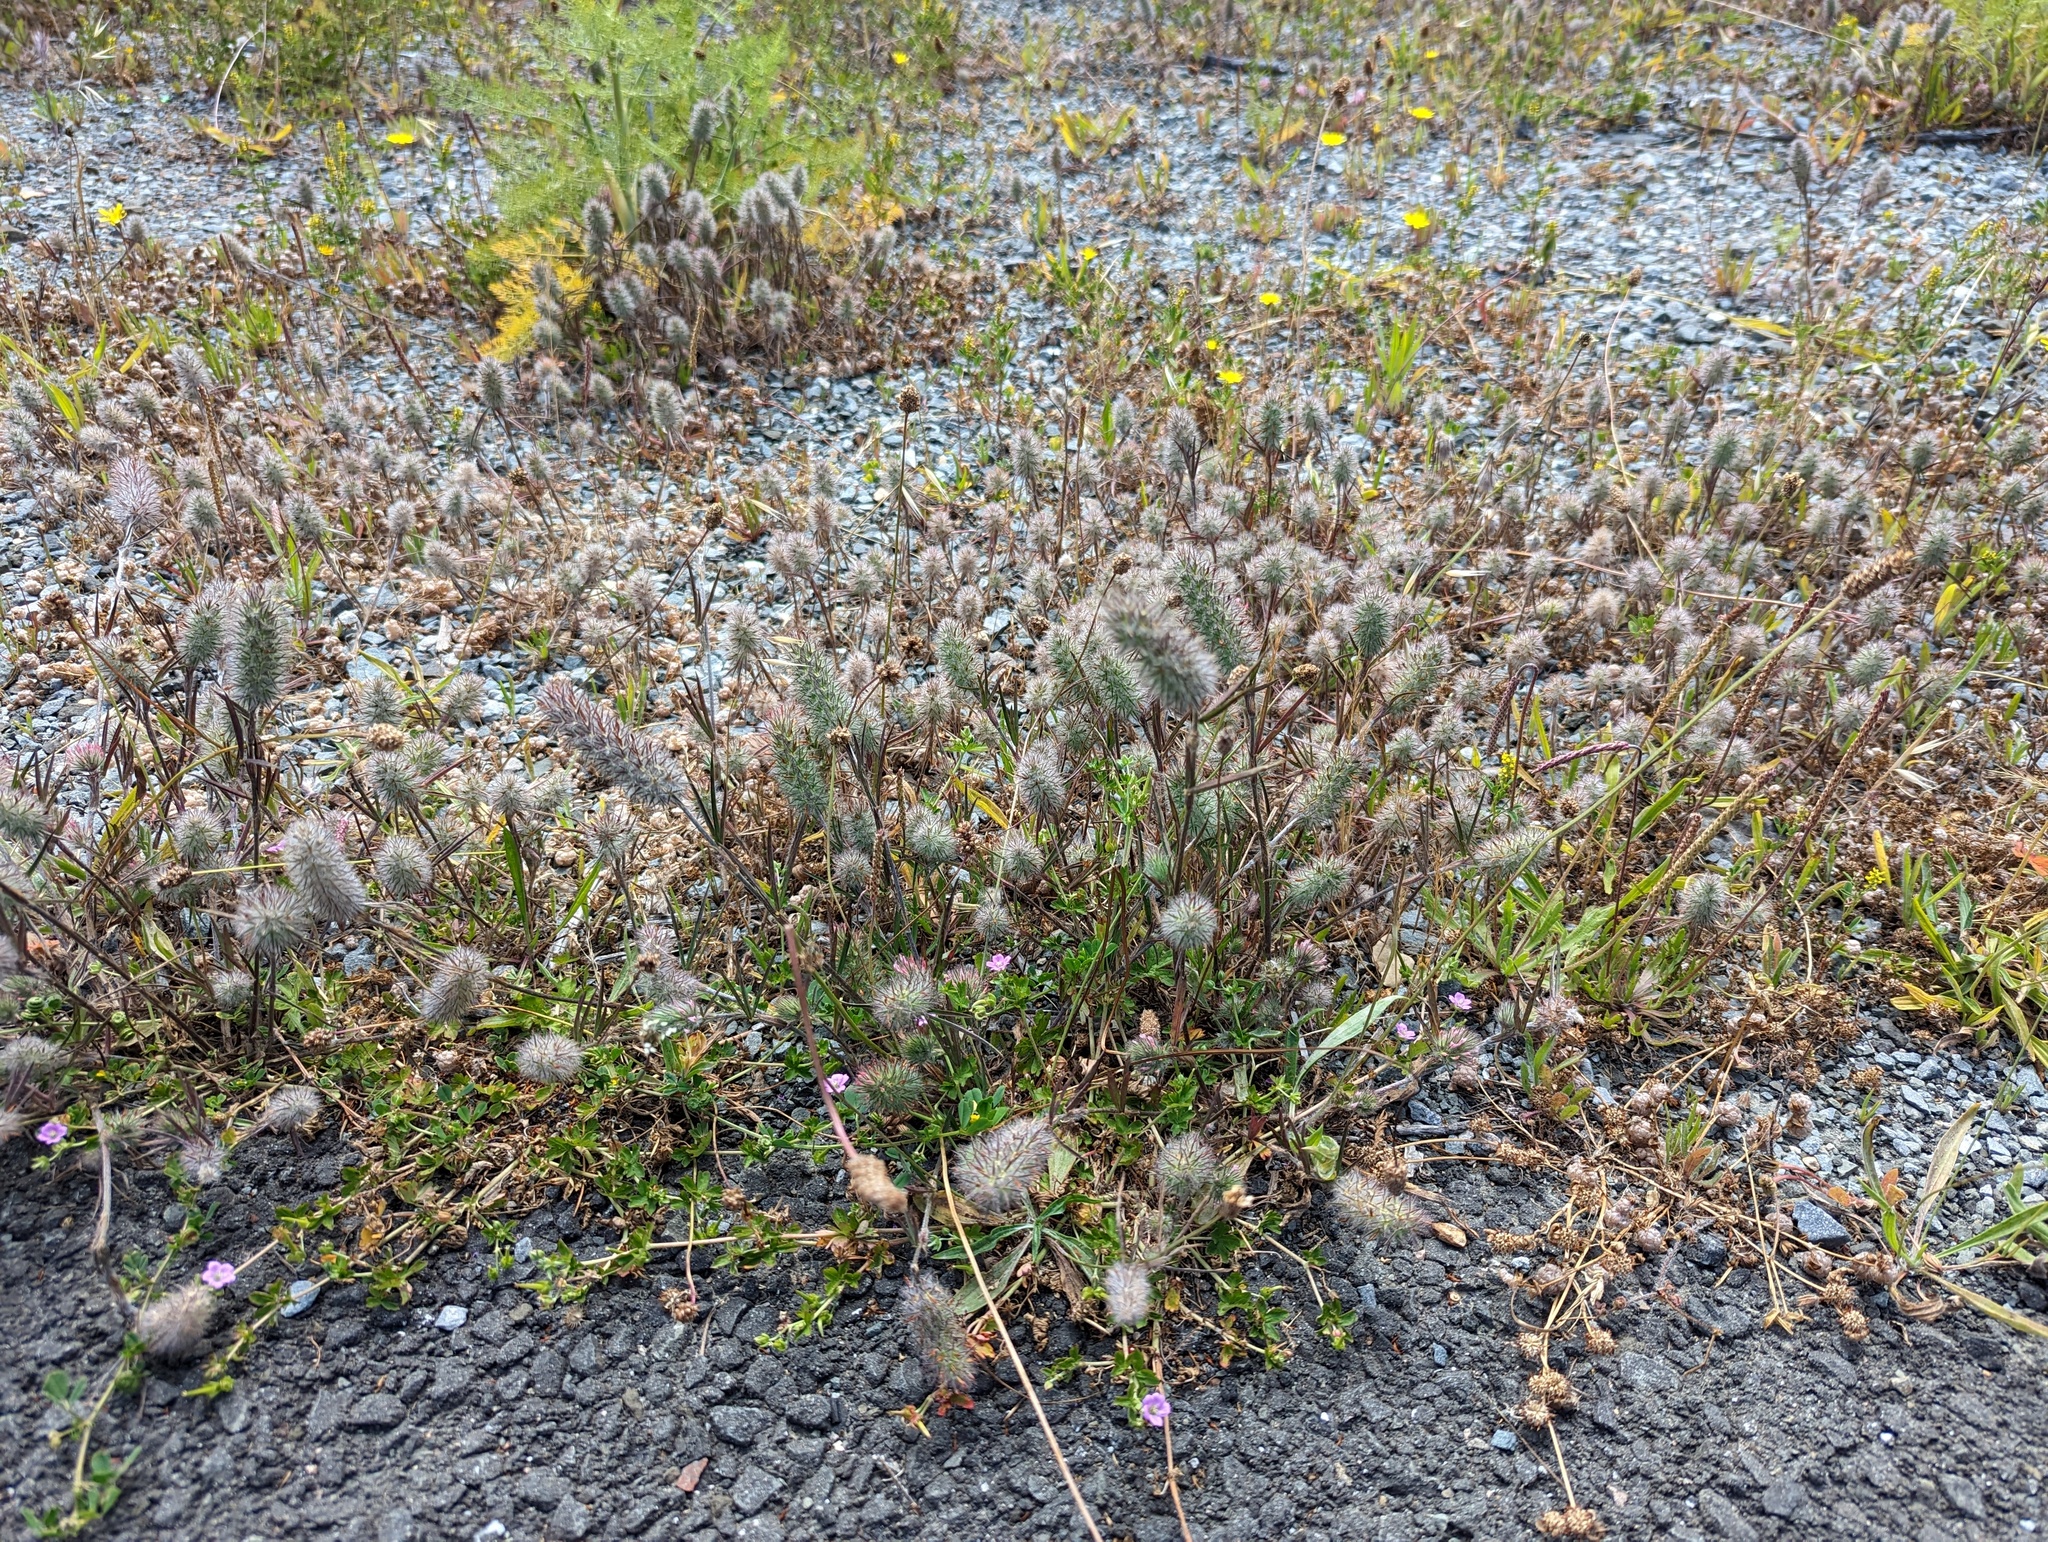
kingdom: Plantae
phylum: Tracheophyta
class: Magnoliopsida
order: Fabales
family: Fabaceae
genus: Trifolium
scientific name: Trifolium angustifolium
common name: Narrow clover
